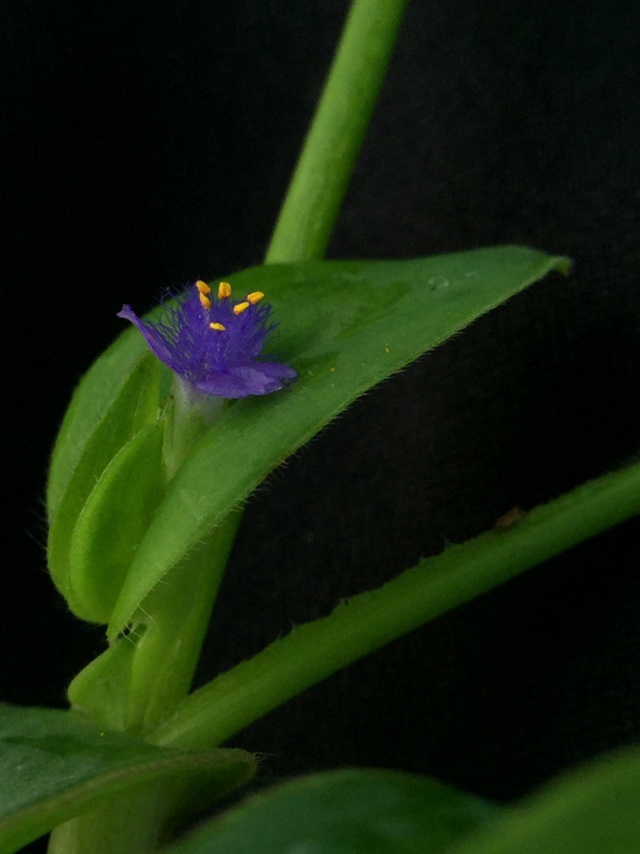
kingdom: Plantae
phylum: Tracheophyta
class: Liliopsida
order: Commelinales
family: Commelinaceae
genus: Cyanotis
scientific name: Cyanotis cristata
